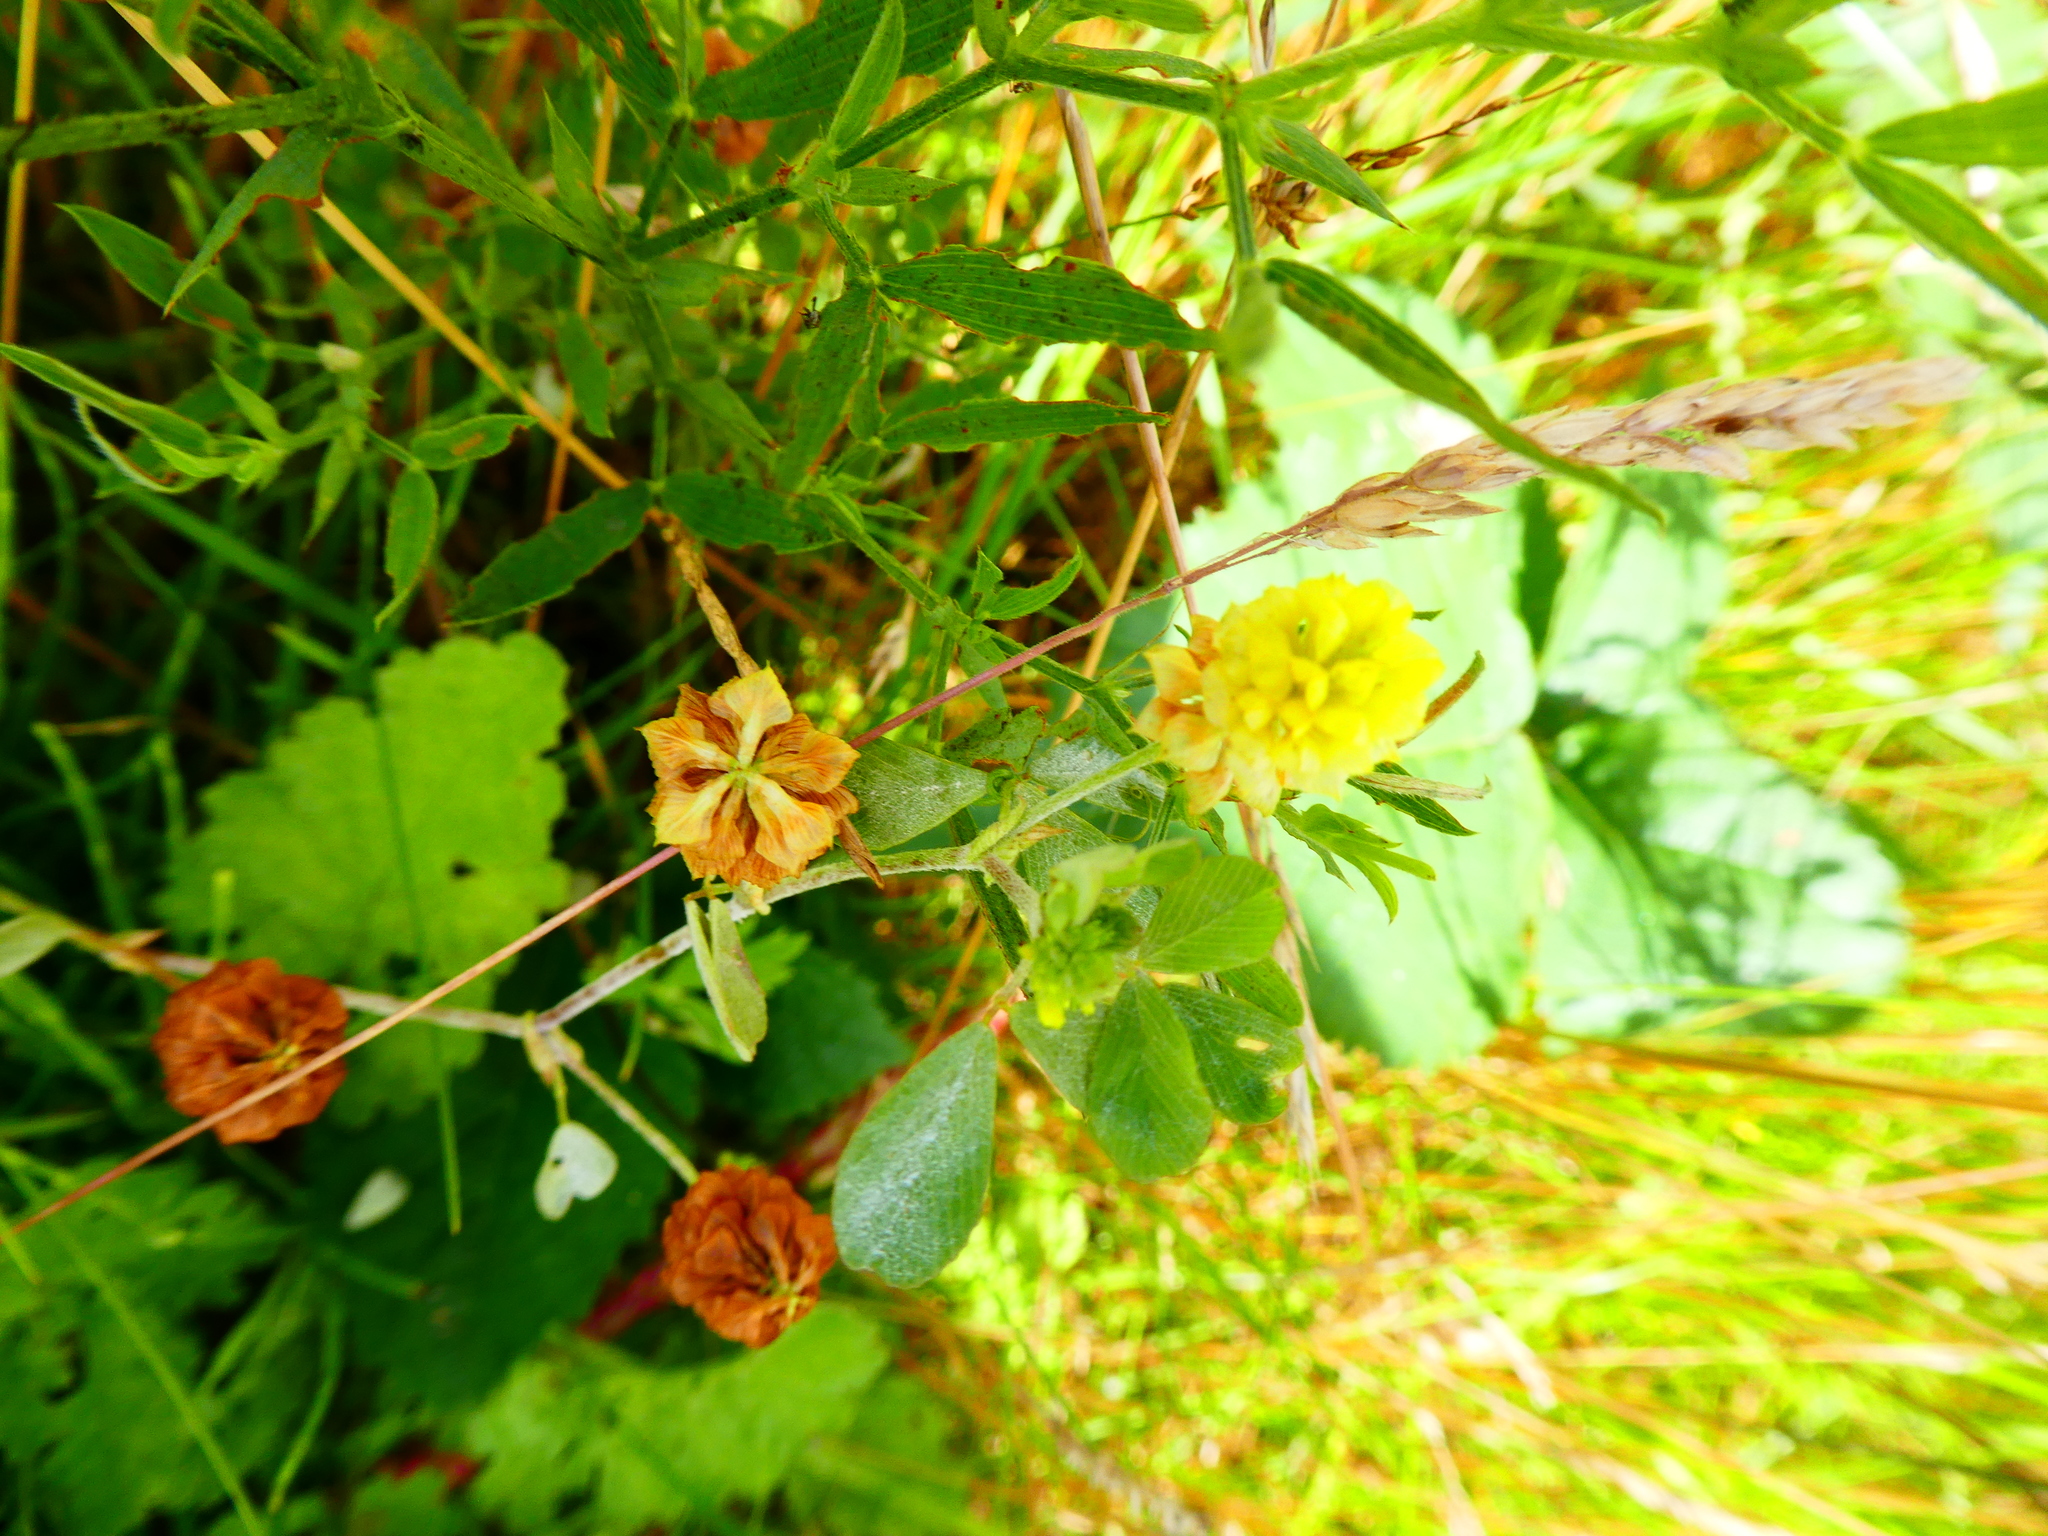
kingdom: Plantae
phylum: Tracheophyta
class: Magnoliopsida
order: Fabales
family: Fabaceae
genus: Trifolium
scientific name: Trifolium campestre
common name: Field clover
